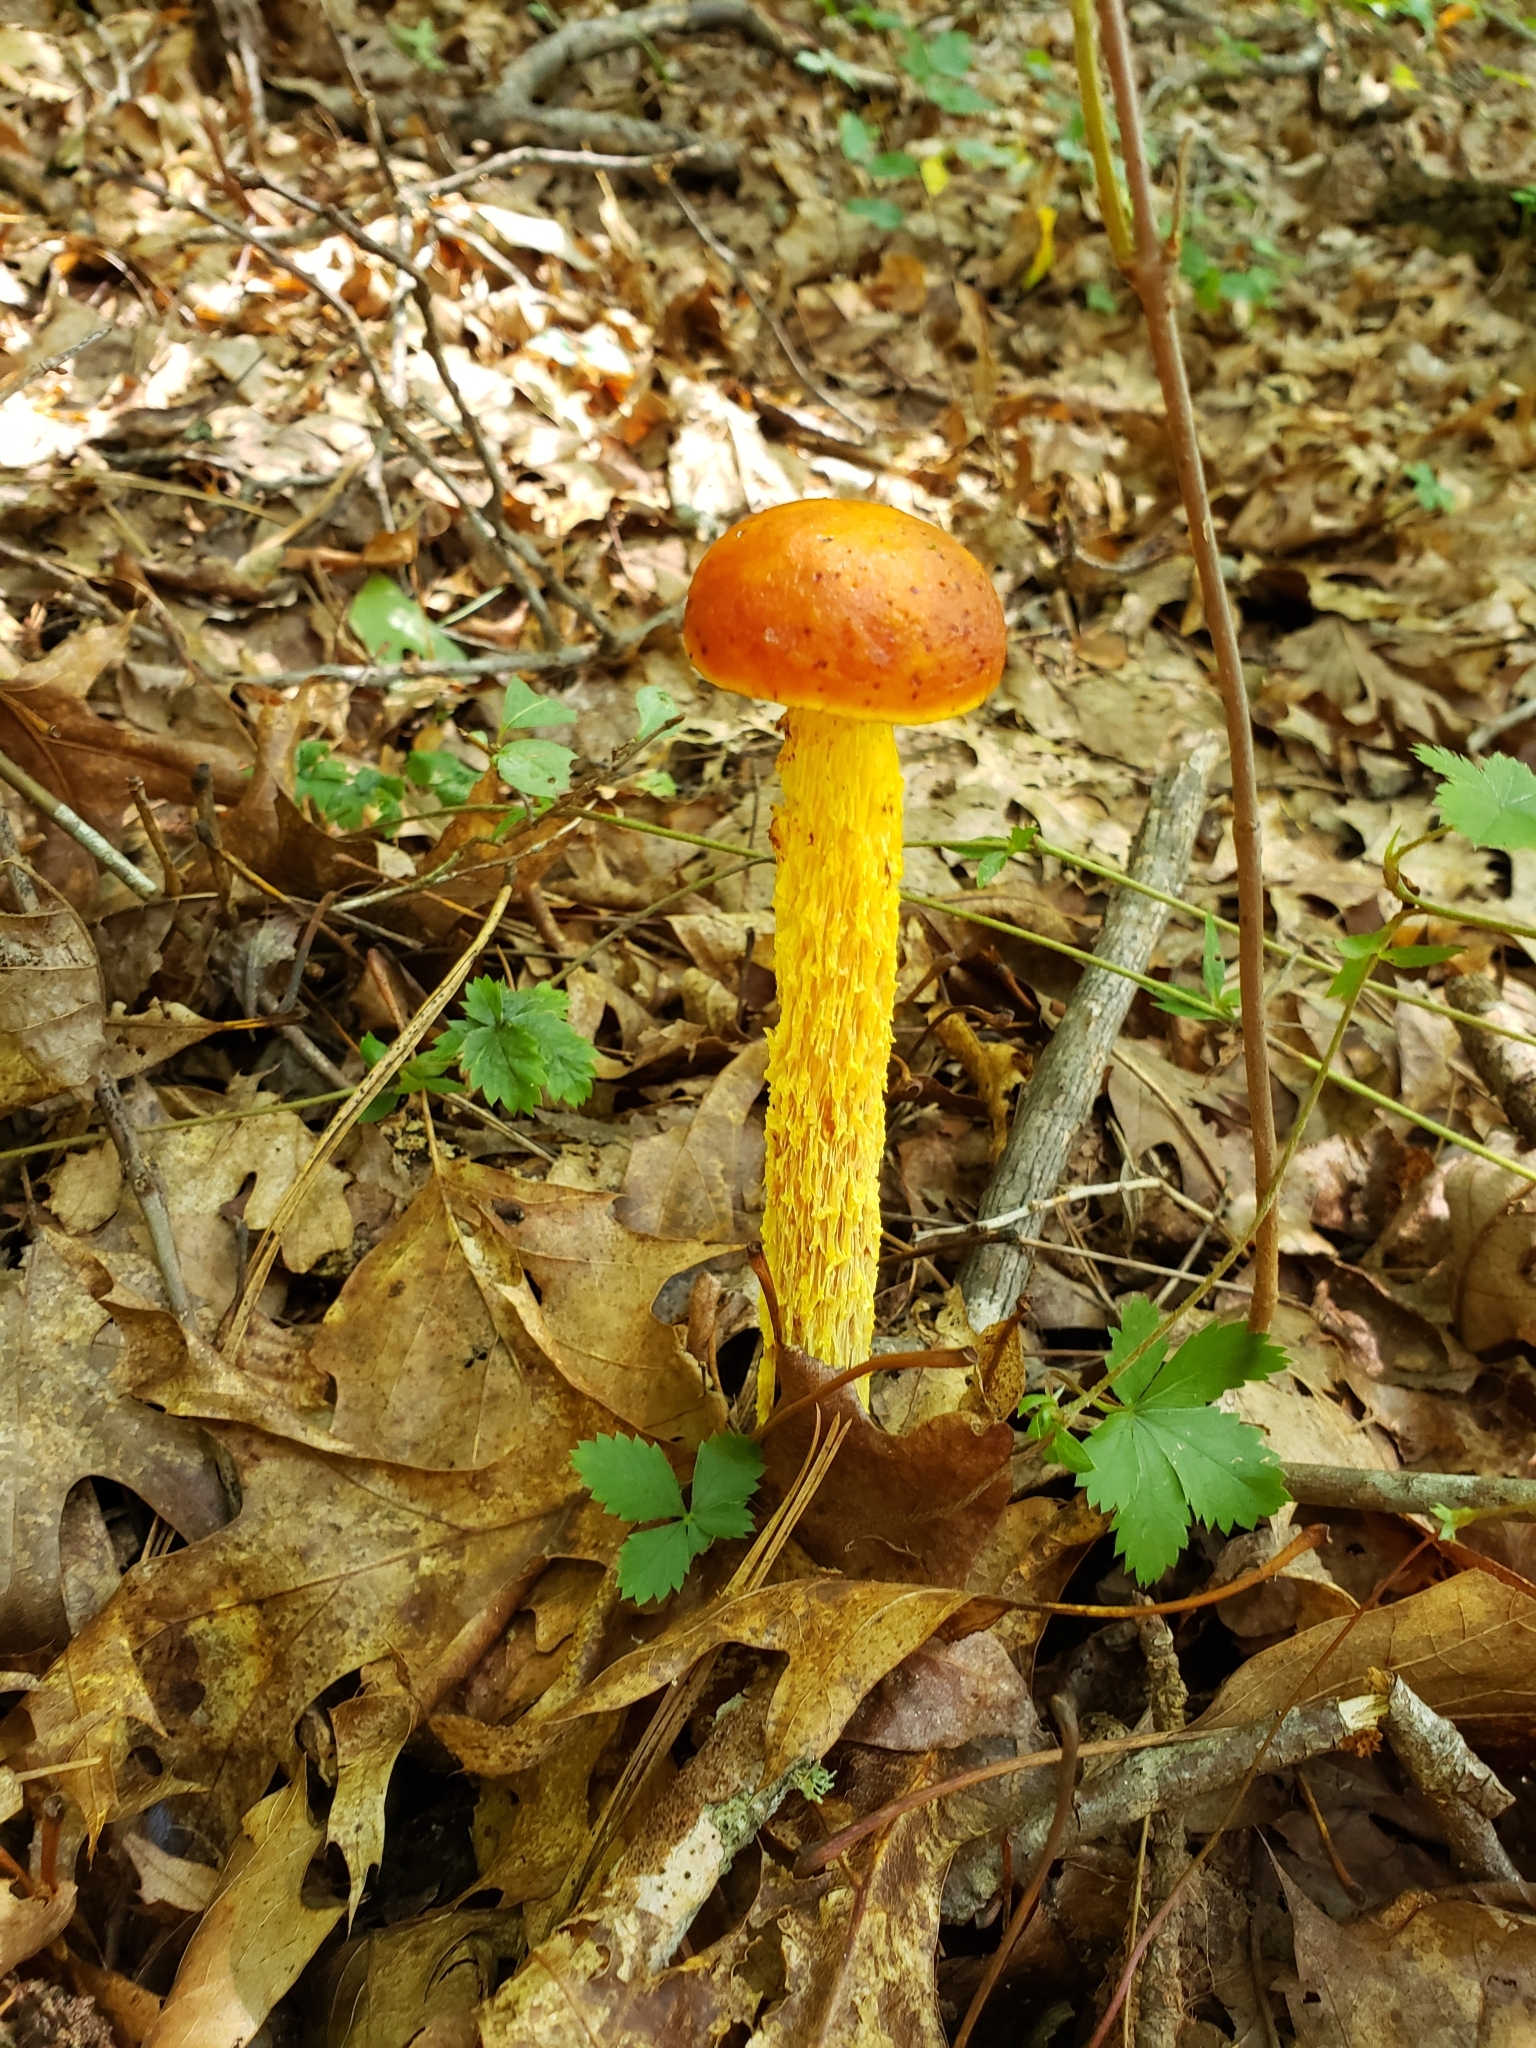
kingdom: Fungi
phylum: Basidiomycota
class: Agaricomycetes
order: Boletales
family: Boletaceae
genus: Aureoboletus
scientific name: Aureoboletus betula
